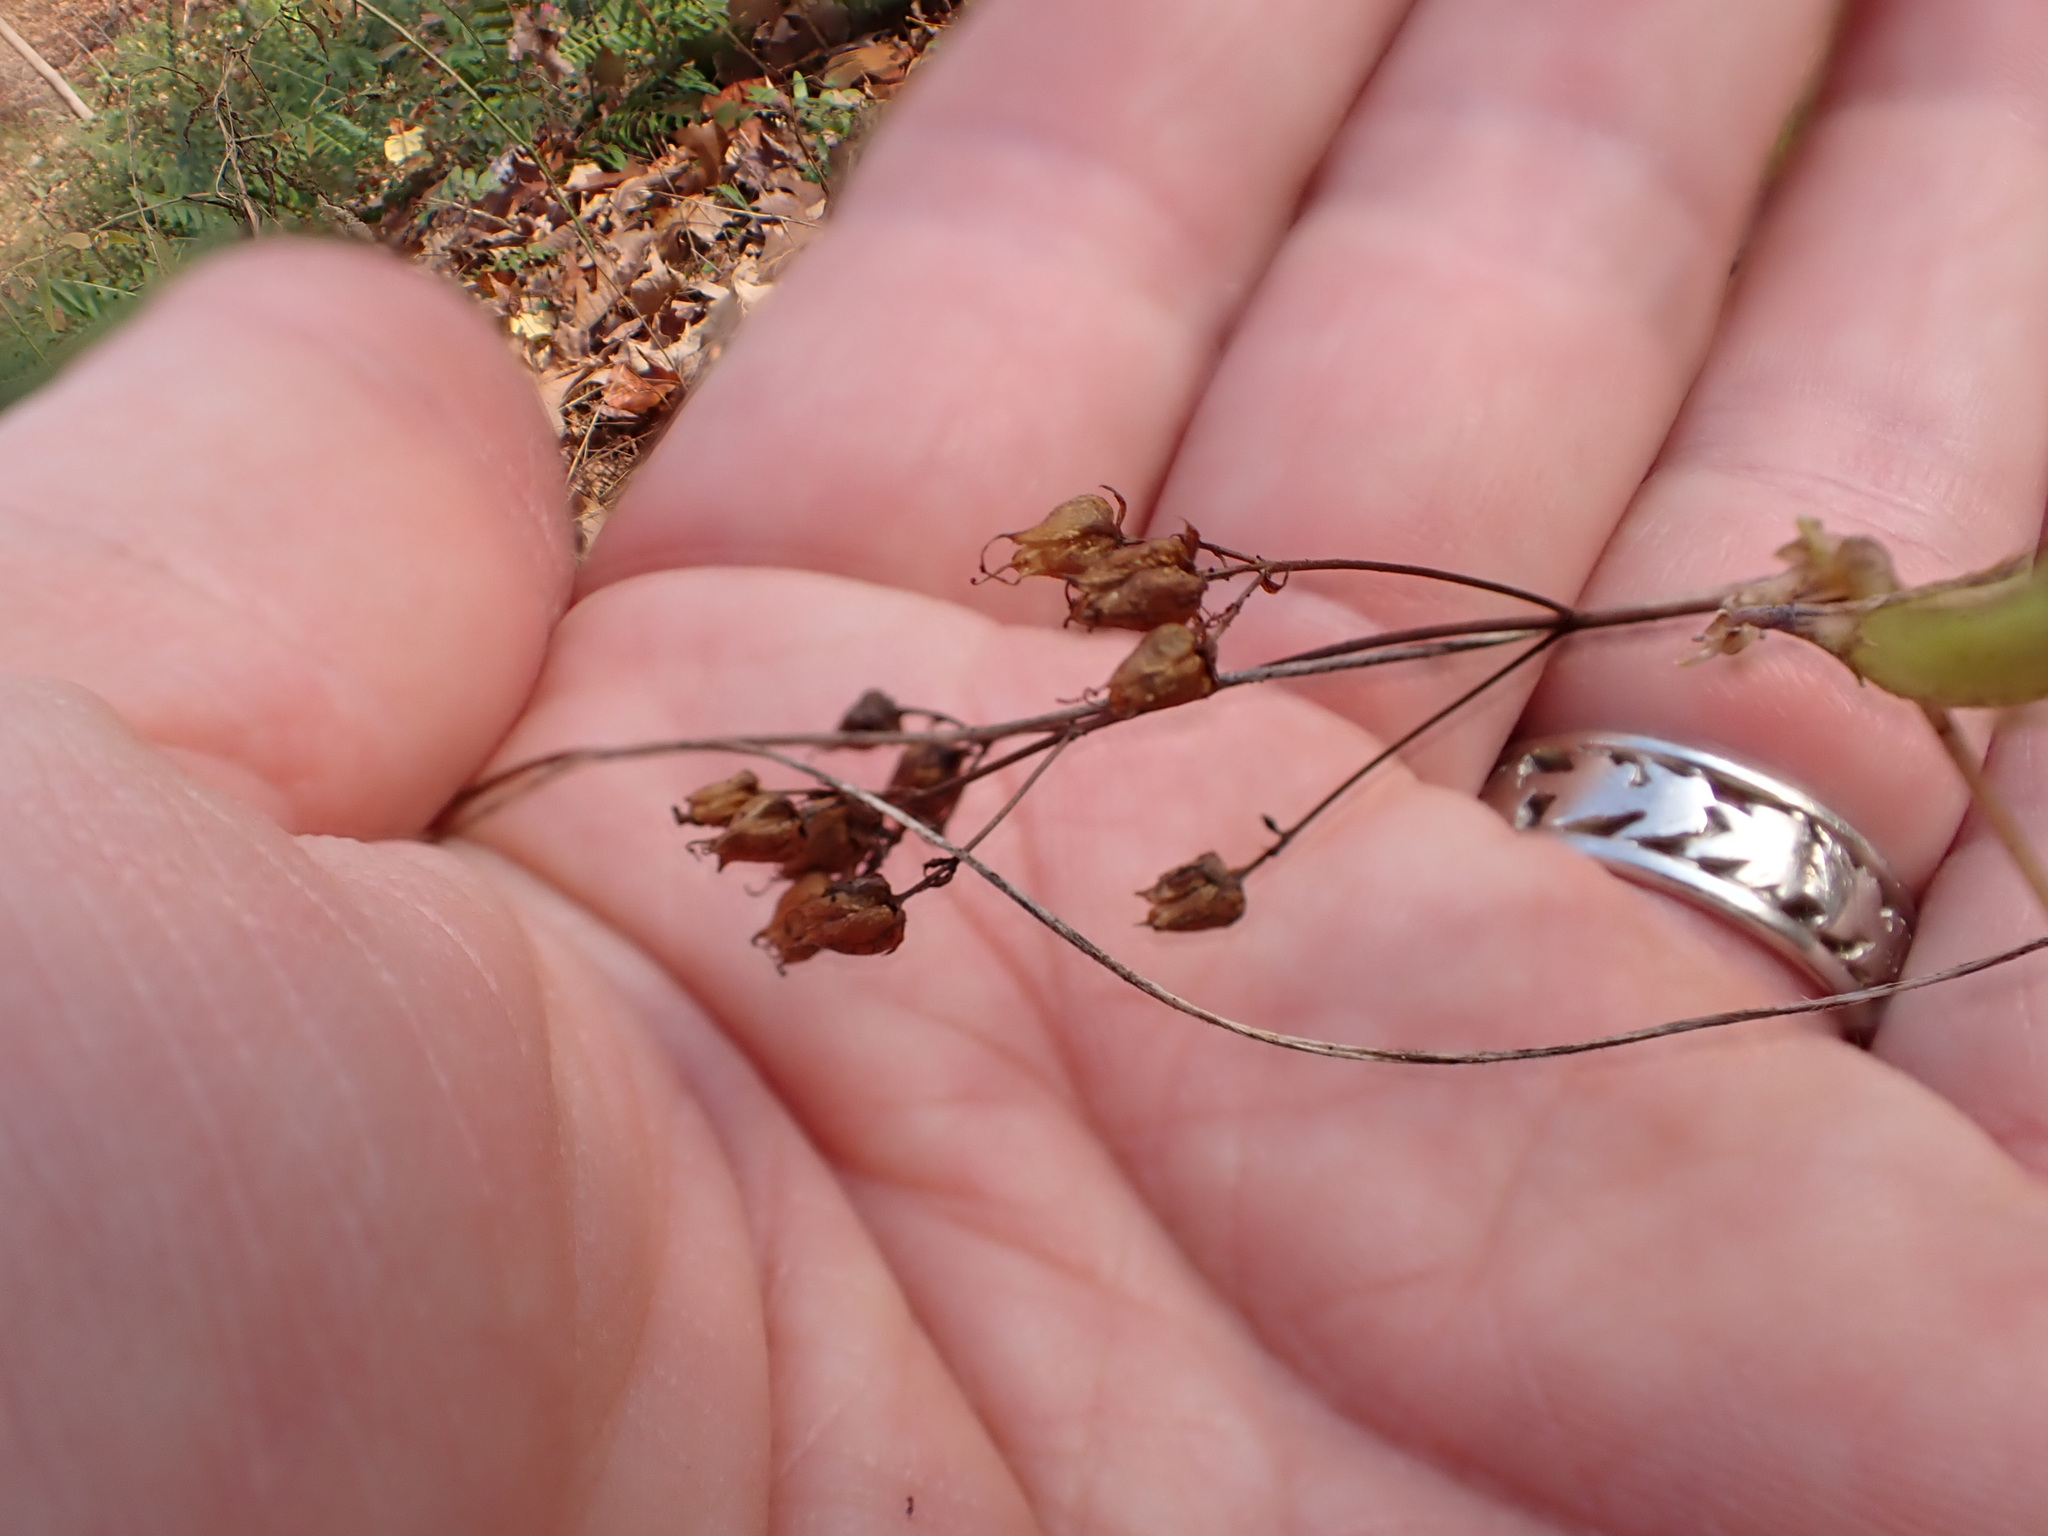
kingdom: Plantae
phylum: Tracheophyta
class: Magnoliopsida
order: Malpighiales
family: Hypericaceae
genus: Hypericum
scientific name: Hypericum punctatum
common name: Spotted st. john's-wort
